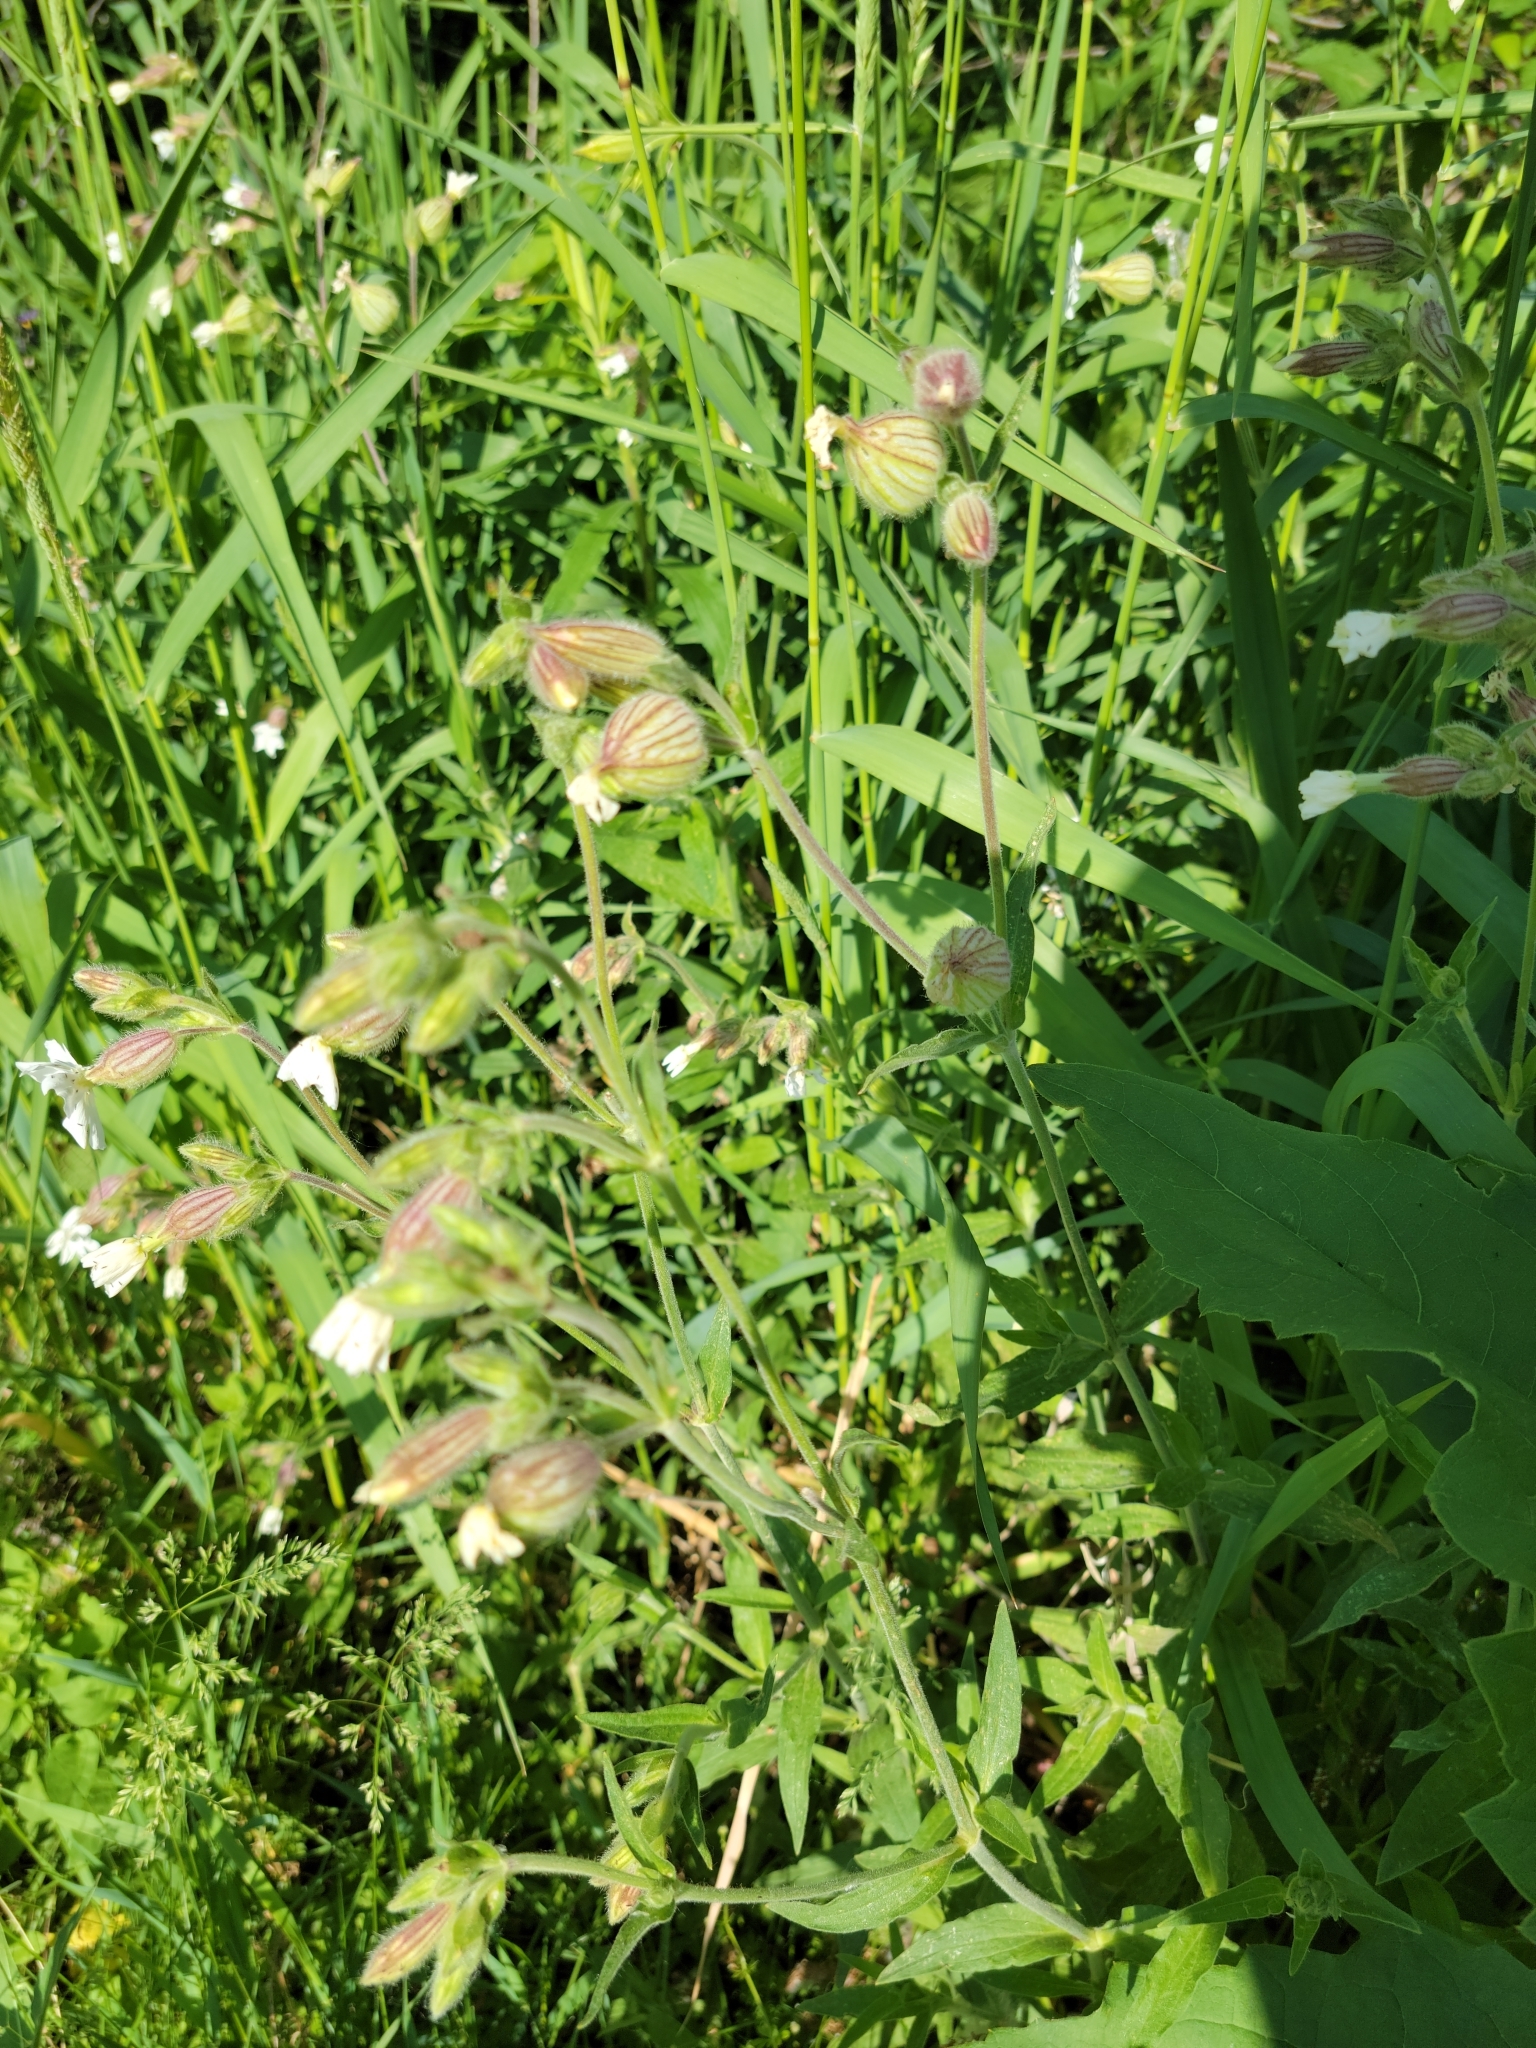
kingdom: Plantae
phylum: Tracheophyta
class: Magnoliopsida
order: Caryophyllales
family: Caryophyllaceae
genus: Silene
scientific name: Silene latifolia
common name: White campion
